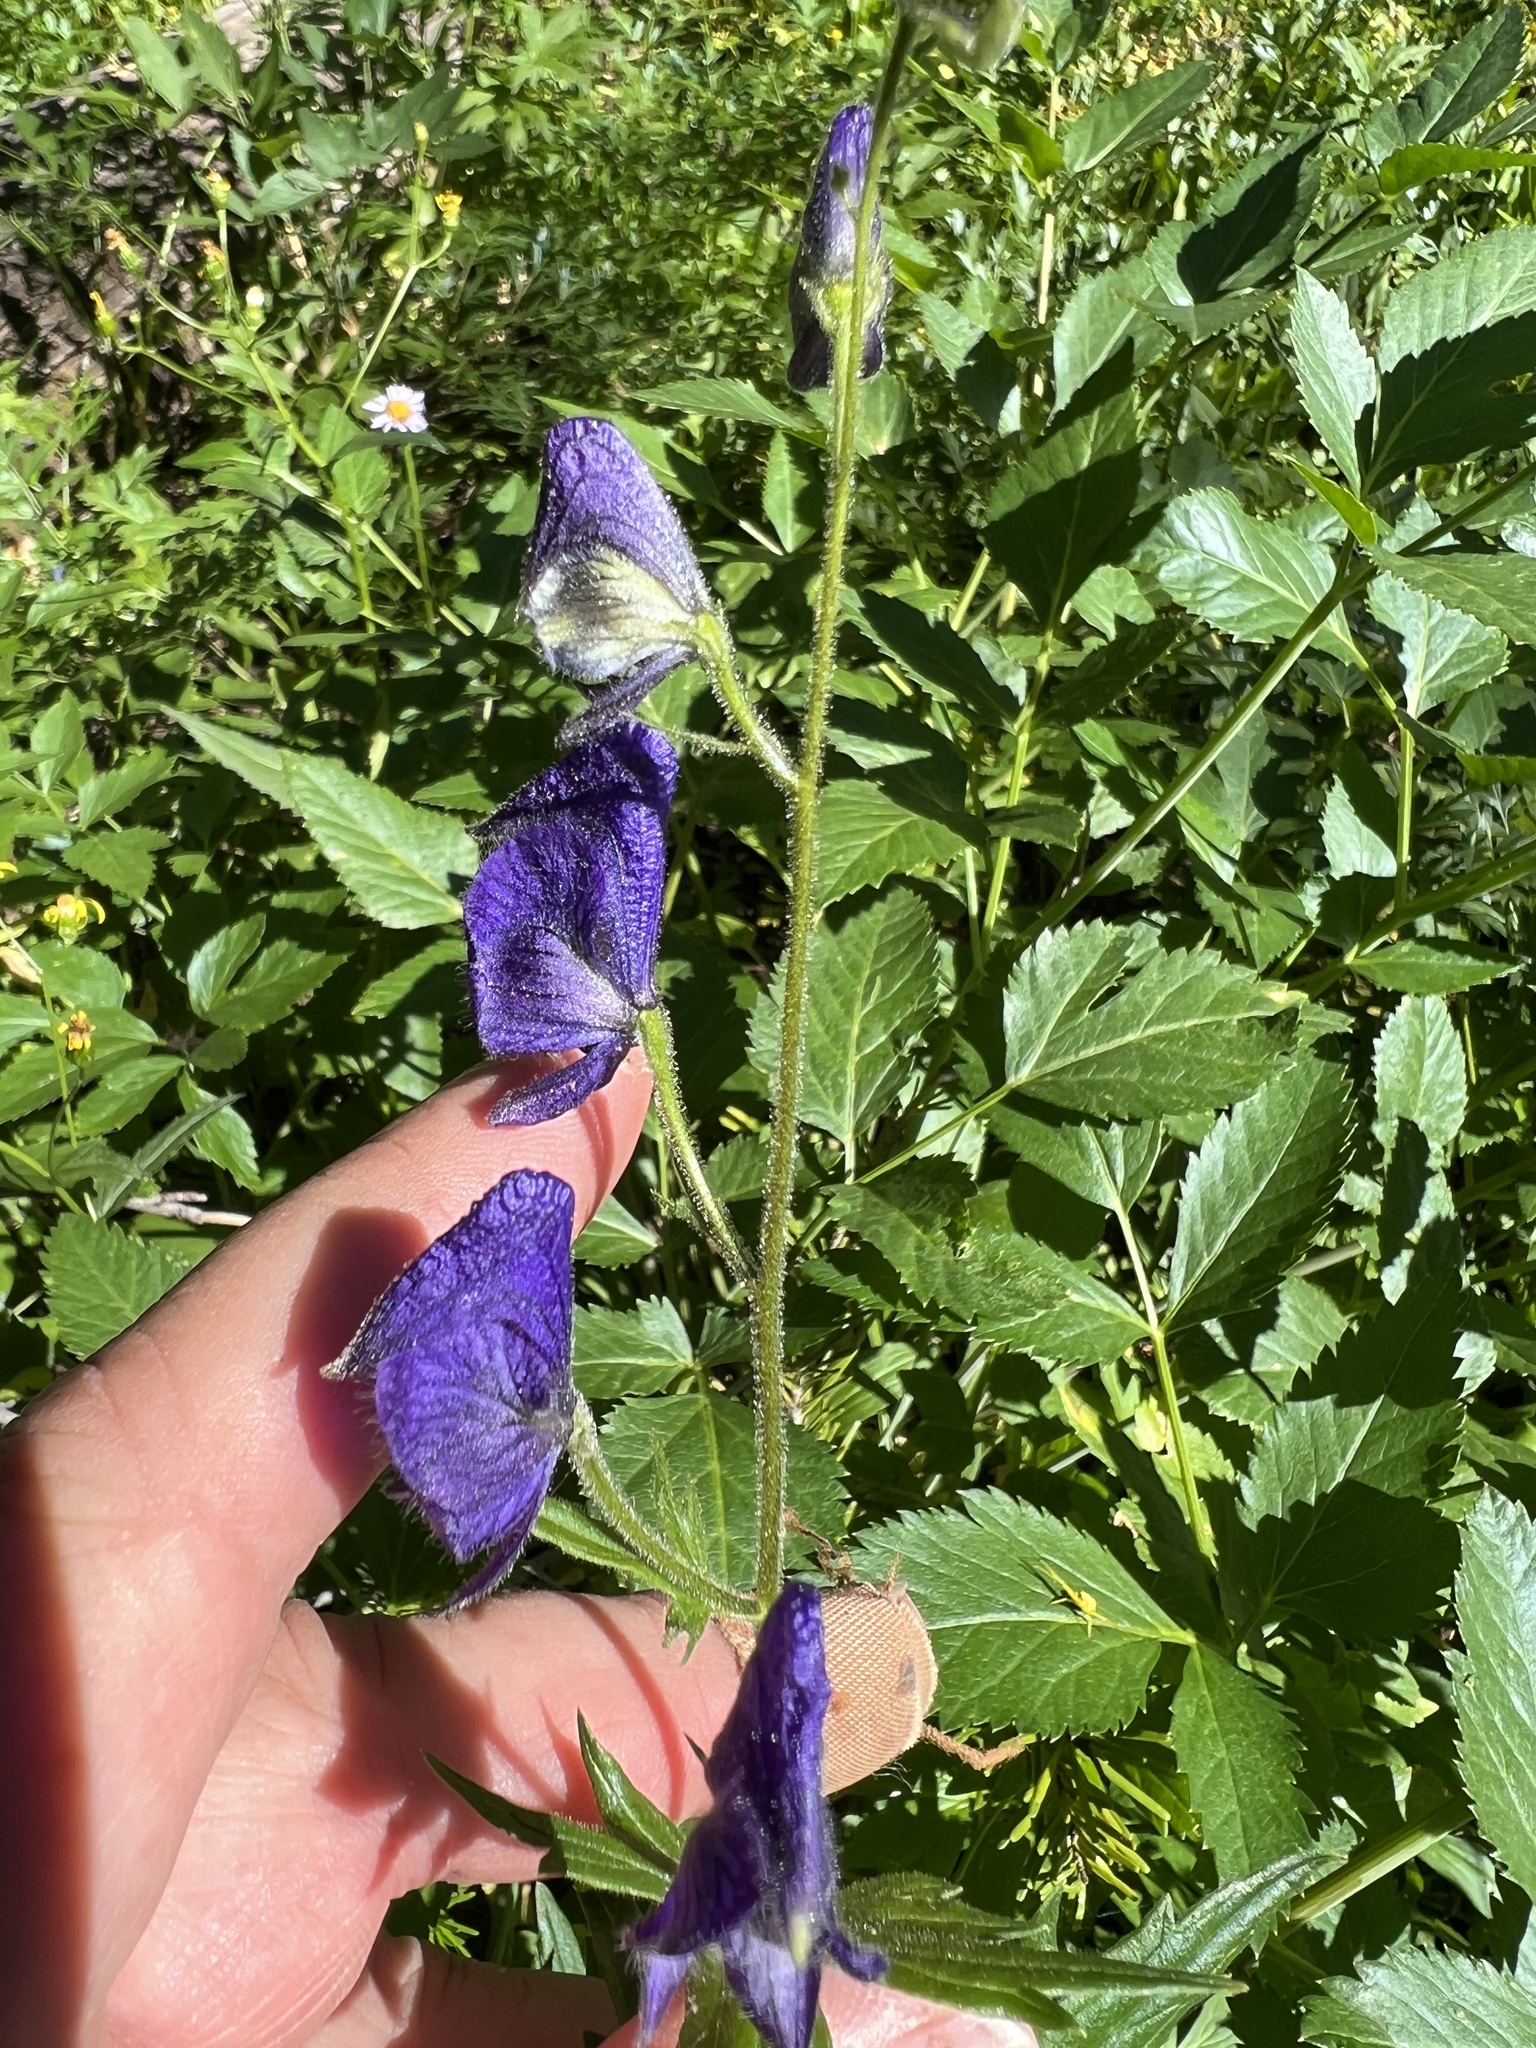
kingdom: Plantae
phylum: Tracheophyta
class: Magnoliopsida
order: Ranunculales
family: Ranunculaceae
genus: Aconitum
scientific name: Aconitum columbianum
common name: Columbia aconite
